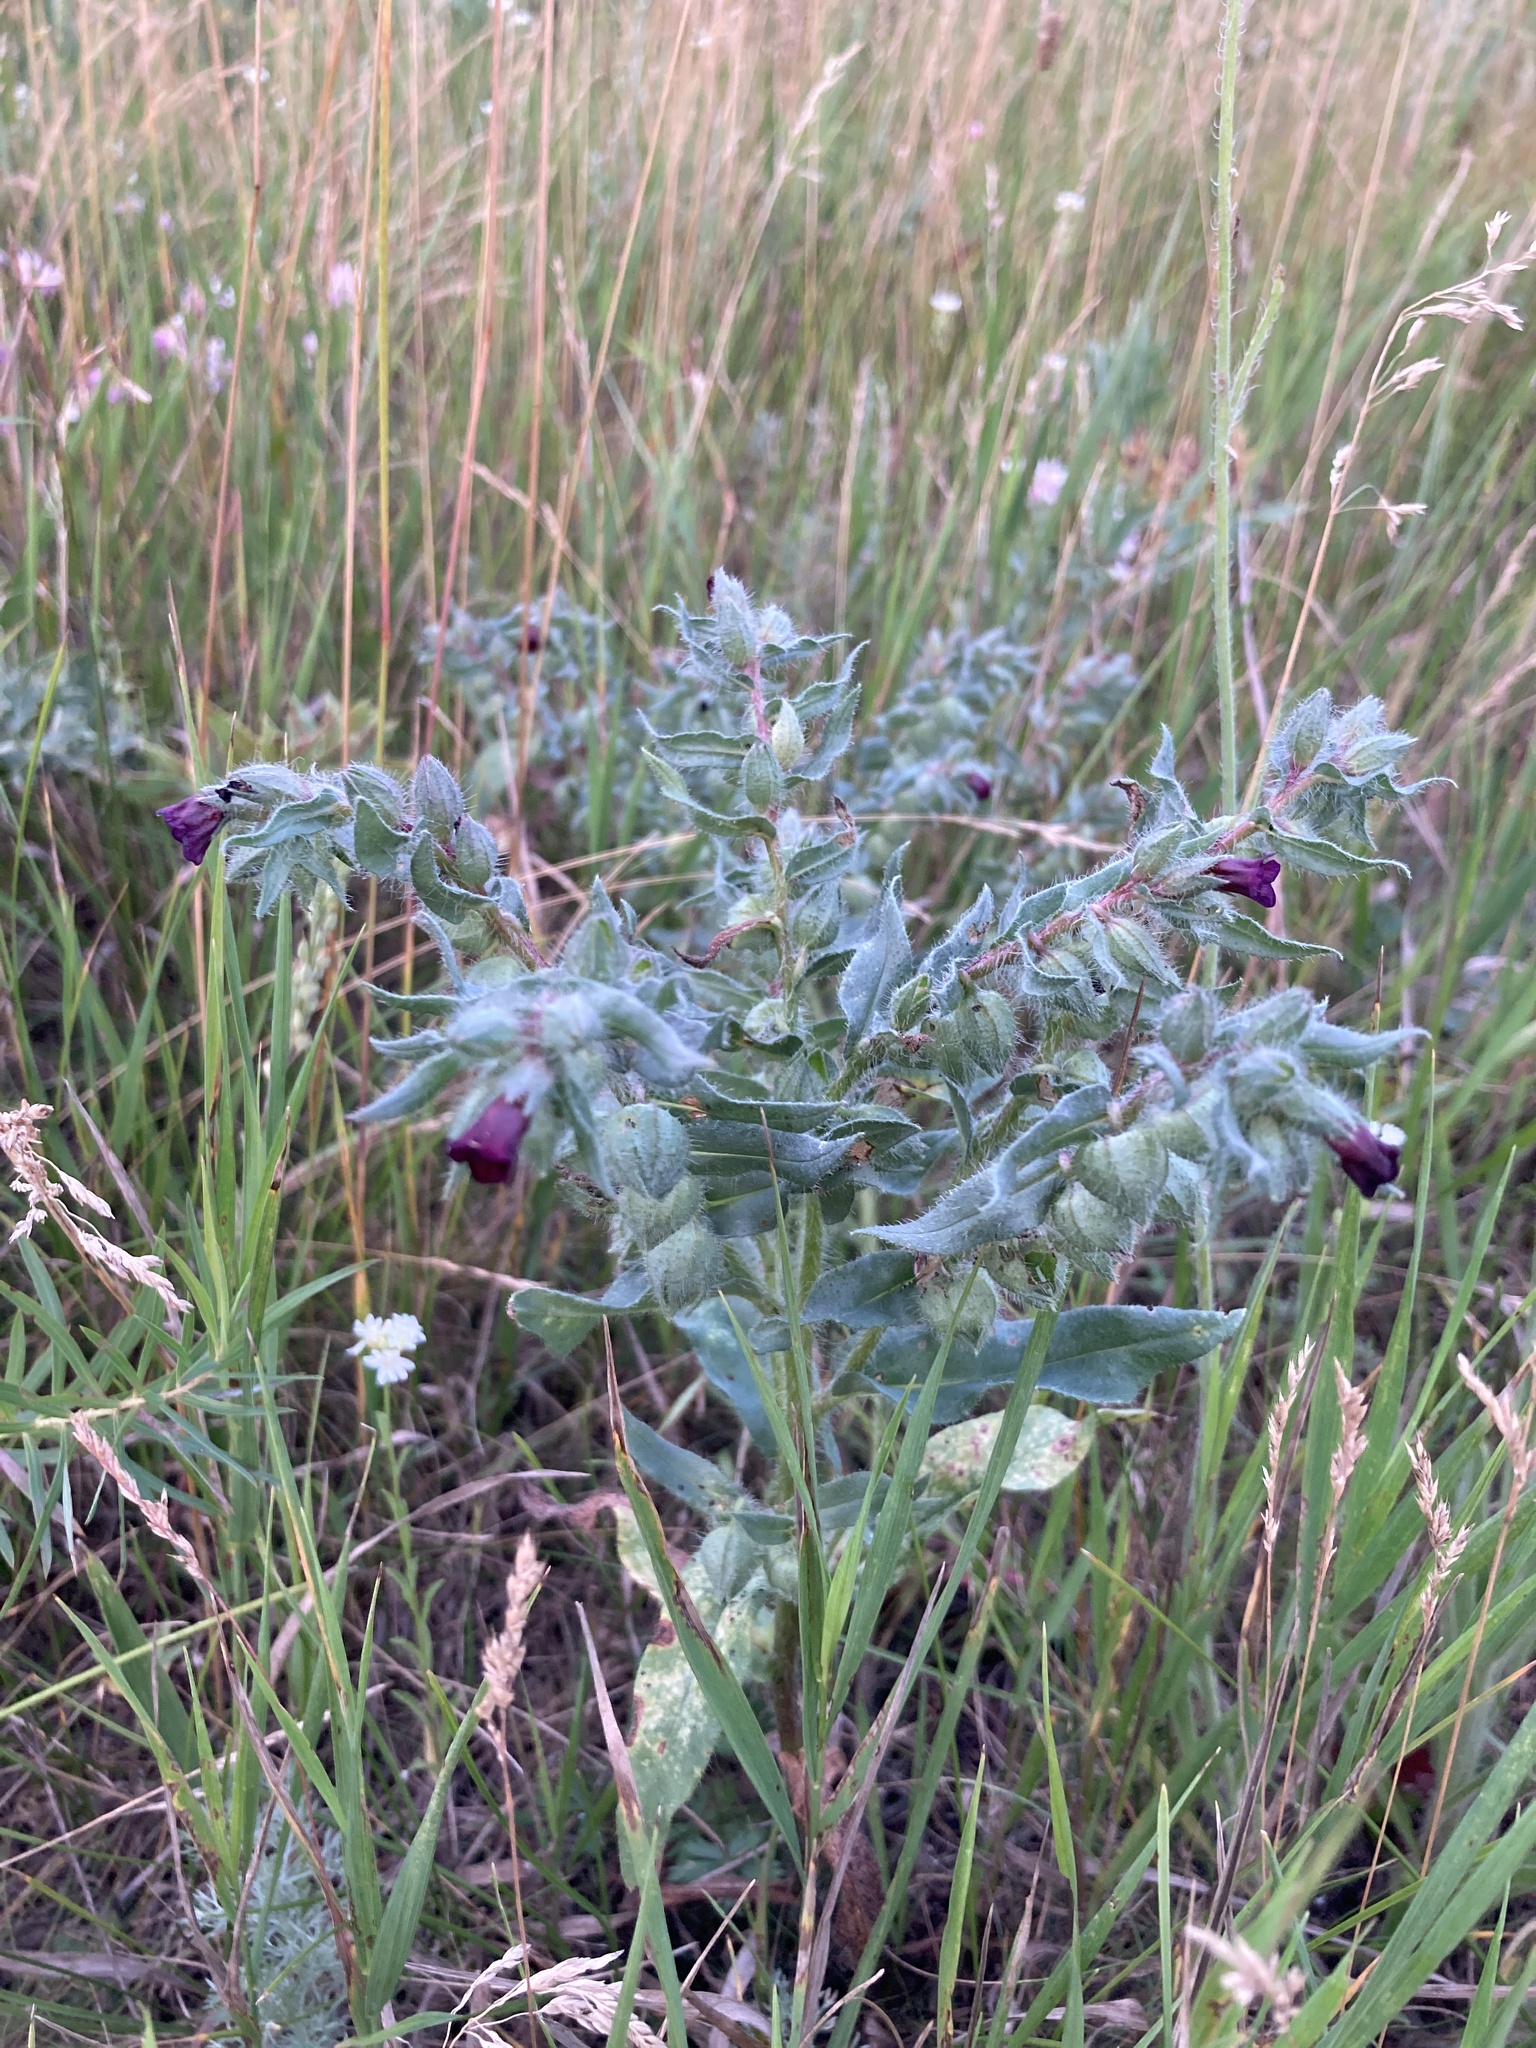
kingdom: Plantae
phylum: Tracheophyta
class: Magnoliopsida
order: Boraginales
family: Boraginaceae
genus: Nonea
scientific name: Nonea pulla
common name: Brown nonea
